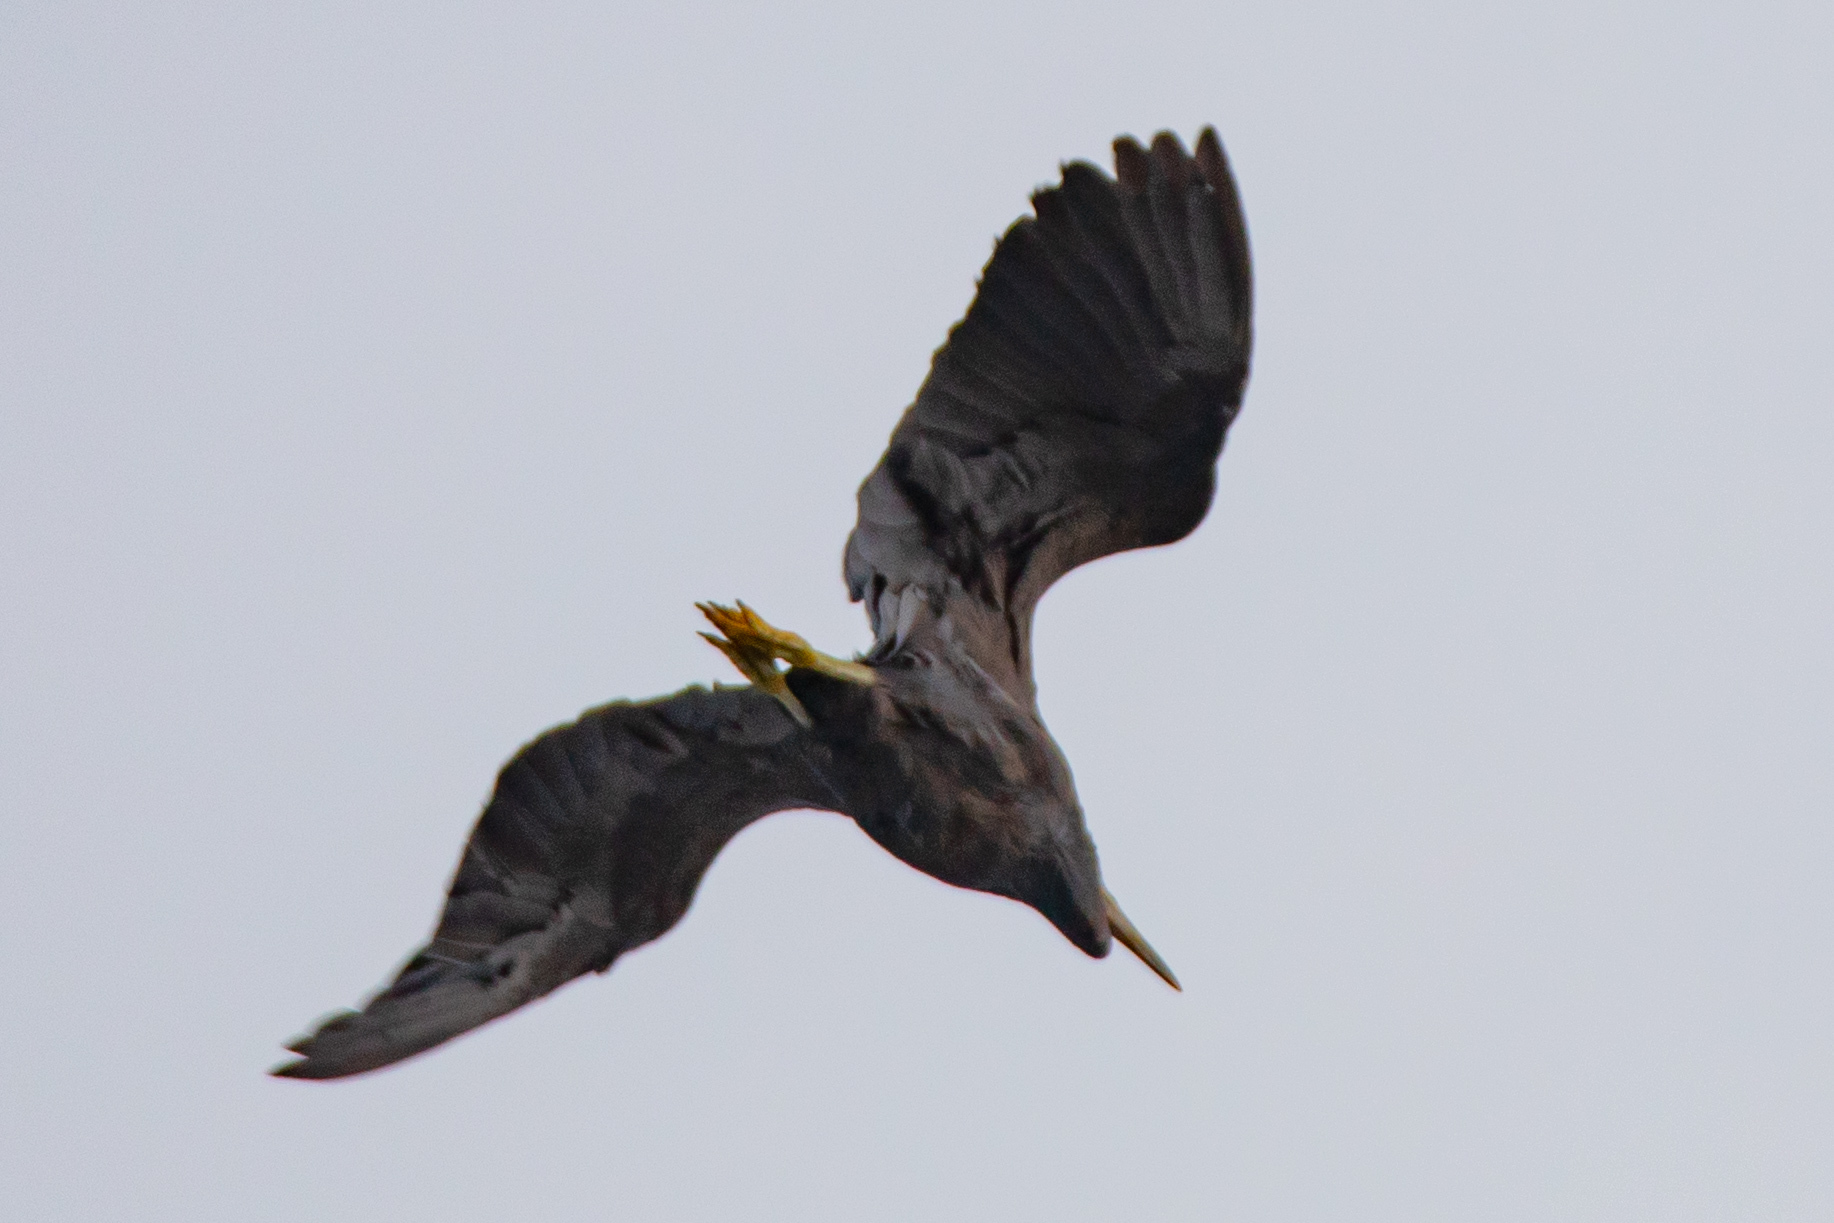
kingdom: Animalia
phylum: Chordata
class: Aves
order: Pelecaniformes
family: Ardeidae
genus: Egretta
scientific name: Egretta sacra
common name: Pacific reef heron
